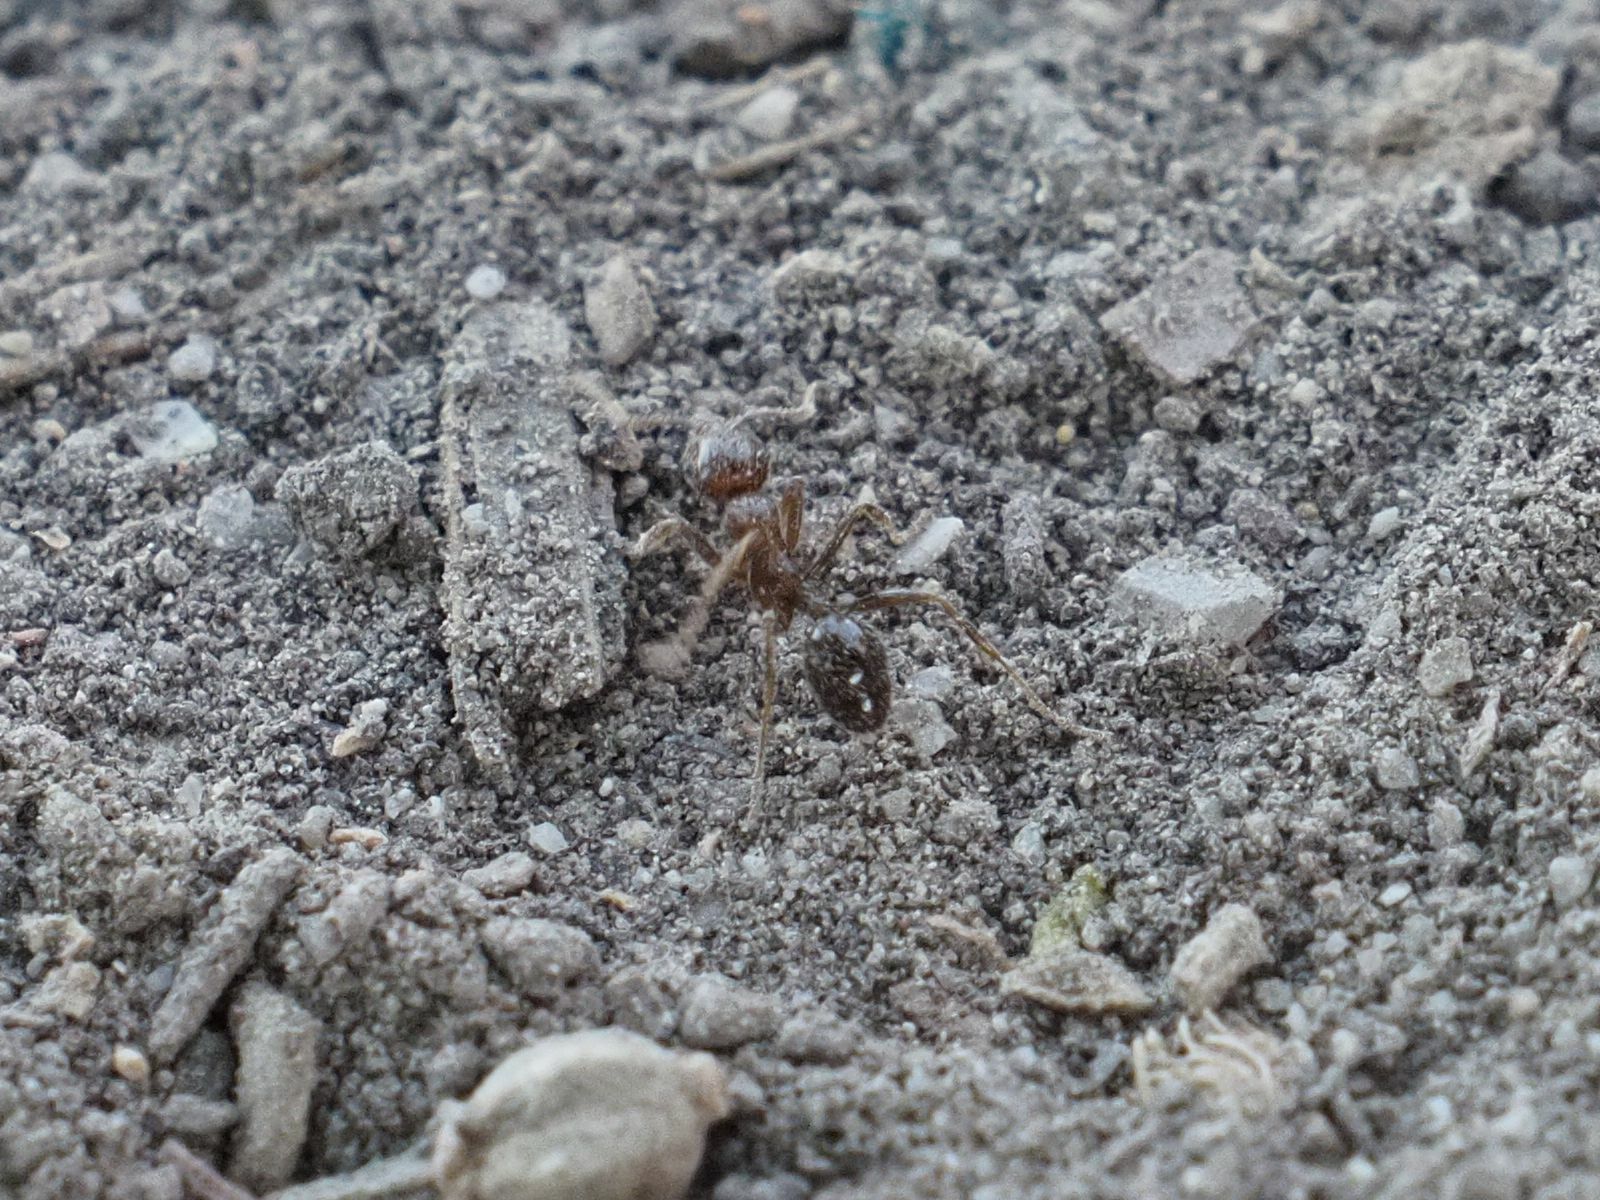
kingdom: Animalia
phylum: Arthropoda
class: Insecta
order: Hymenoptera
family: Formicidae
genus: Messor
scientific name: Messor ibericus
